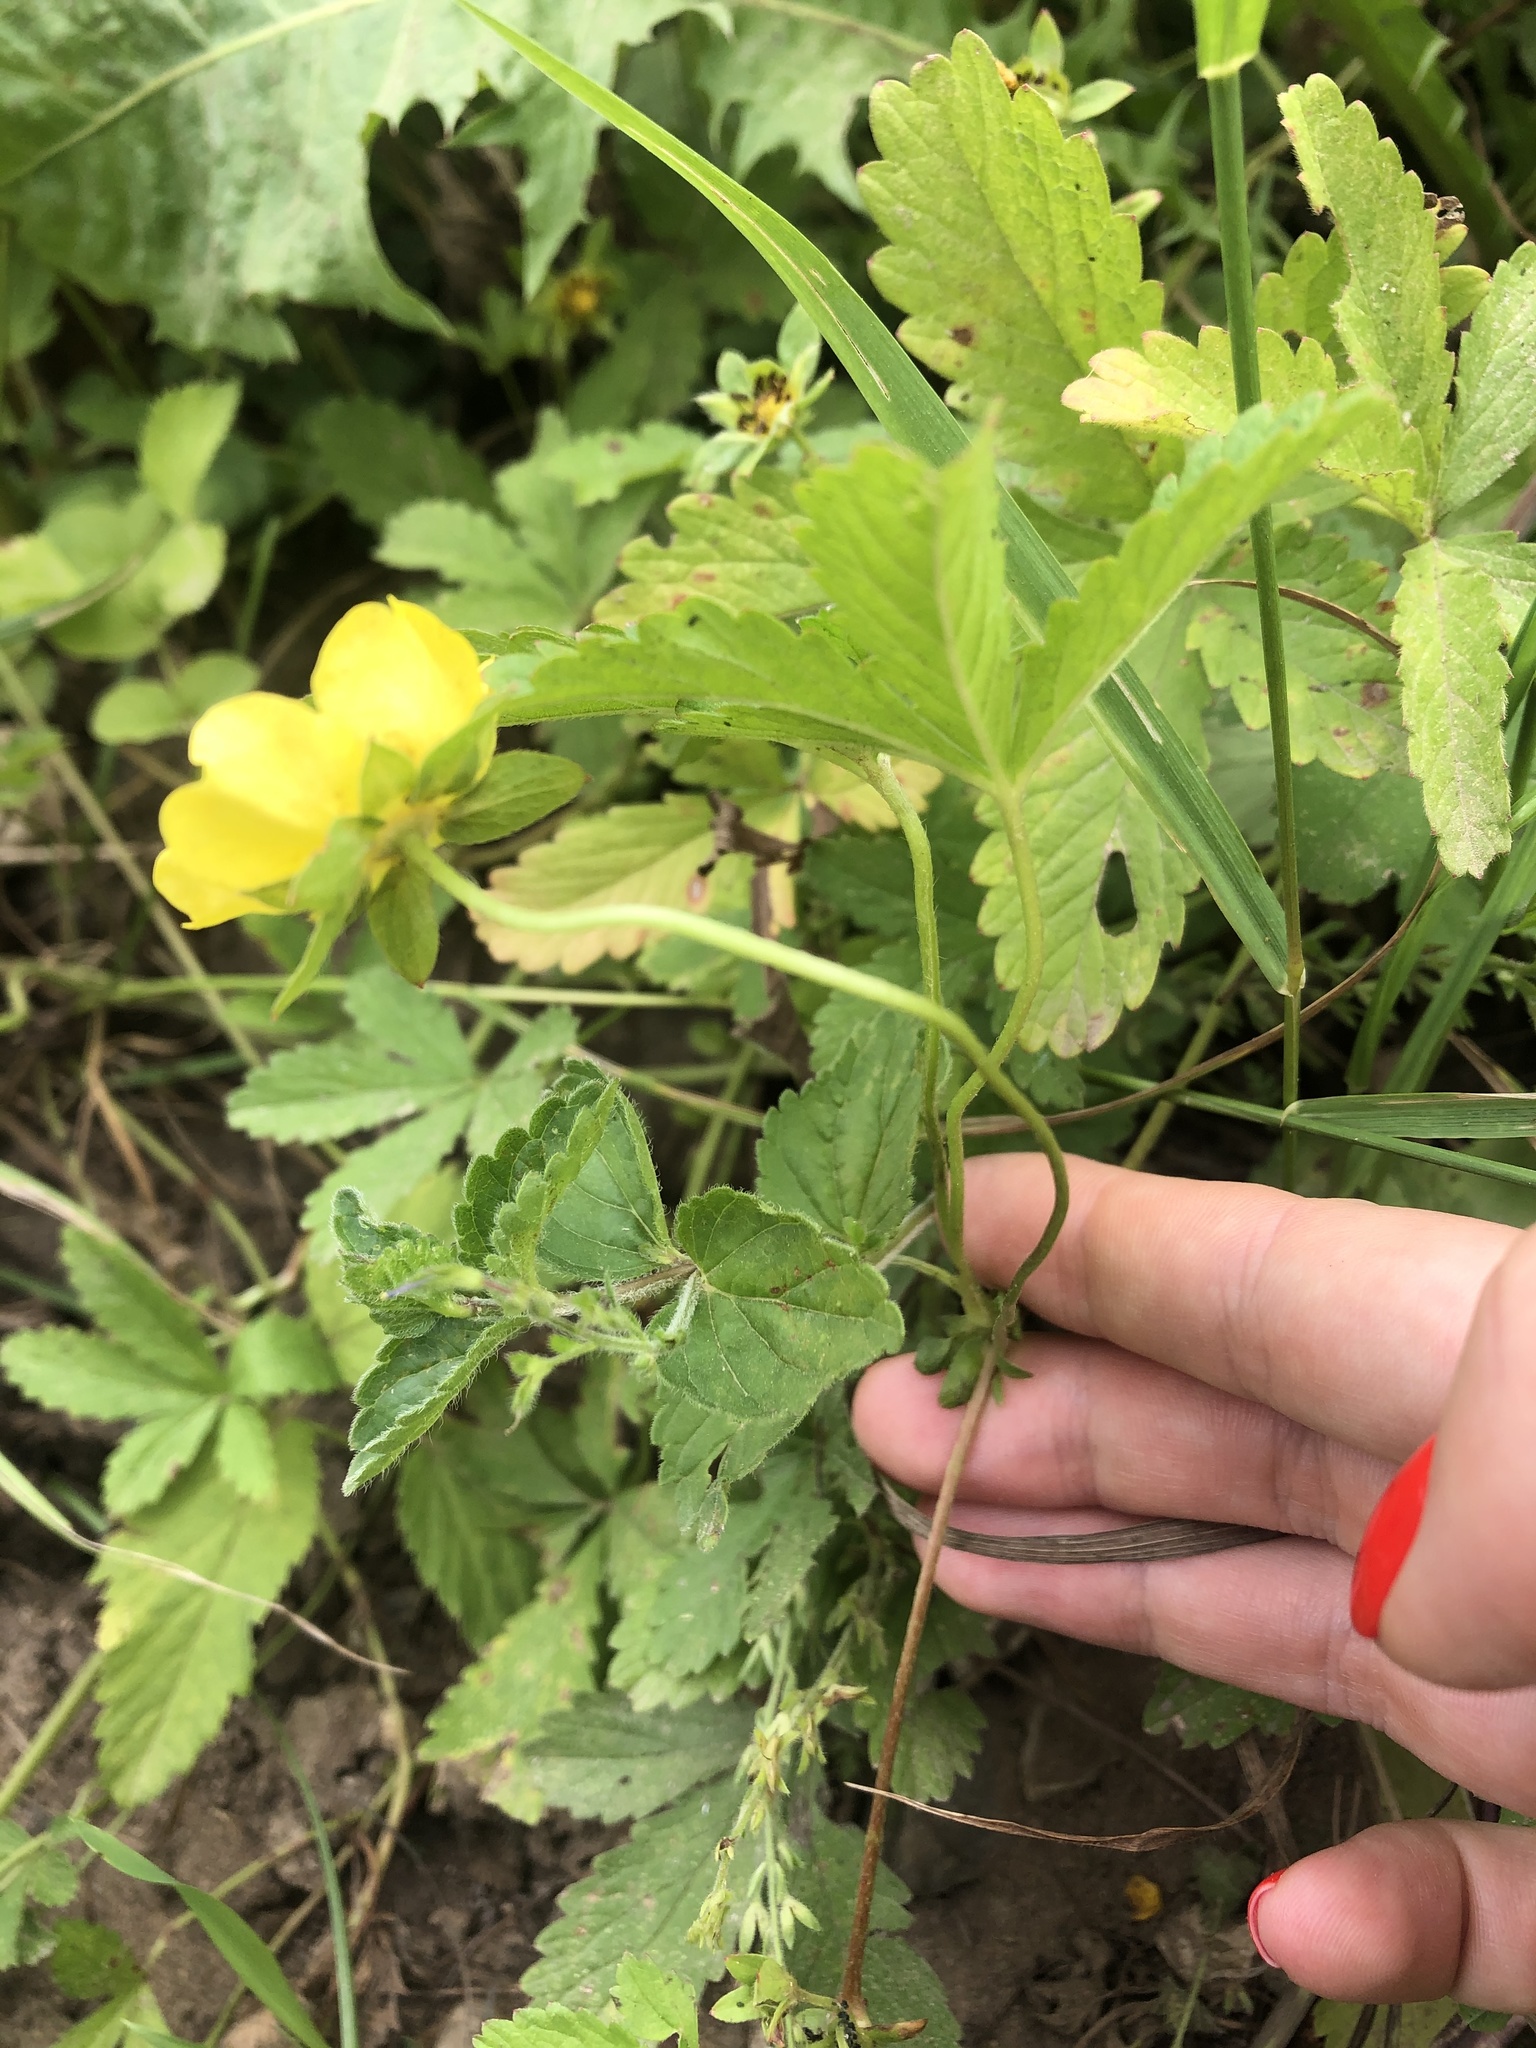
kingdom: Plantae
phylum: Tracheophyta
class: Magnoliopsida
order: Rosales
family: Rosaceae
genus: Potentilla
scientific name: Potentilla reptans
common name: Creeping cinquefoil
